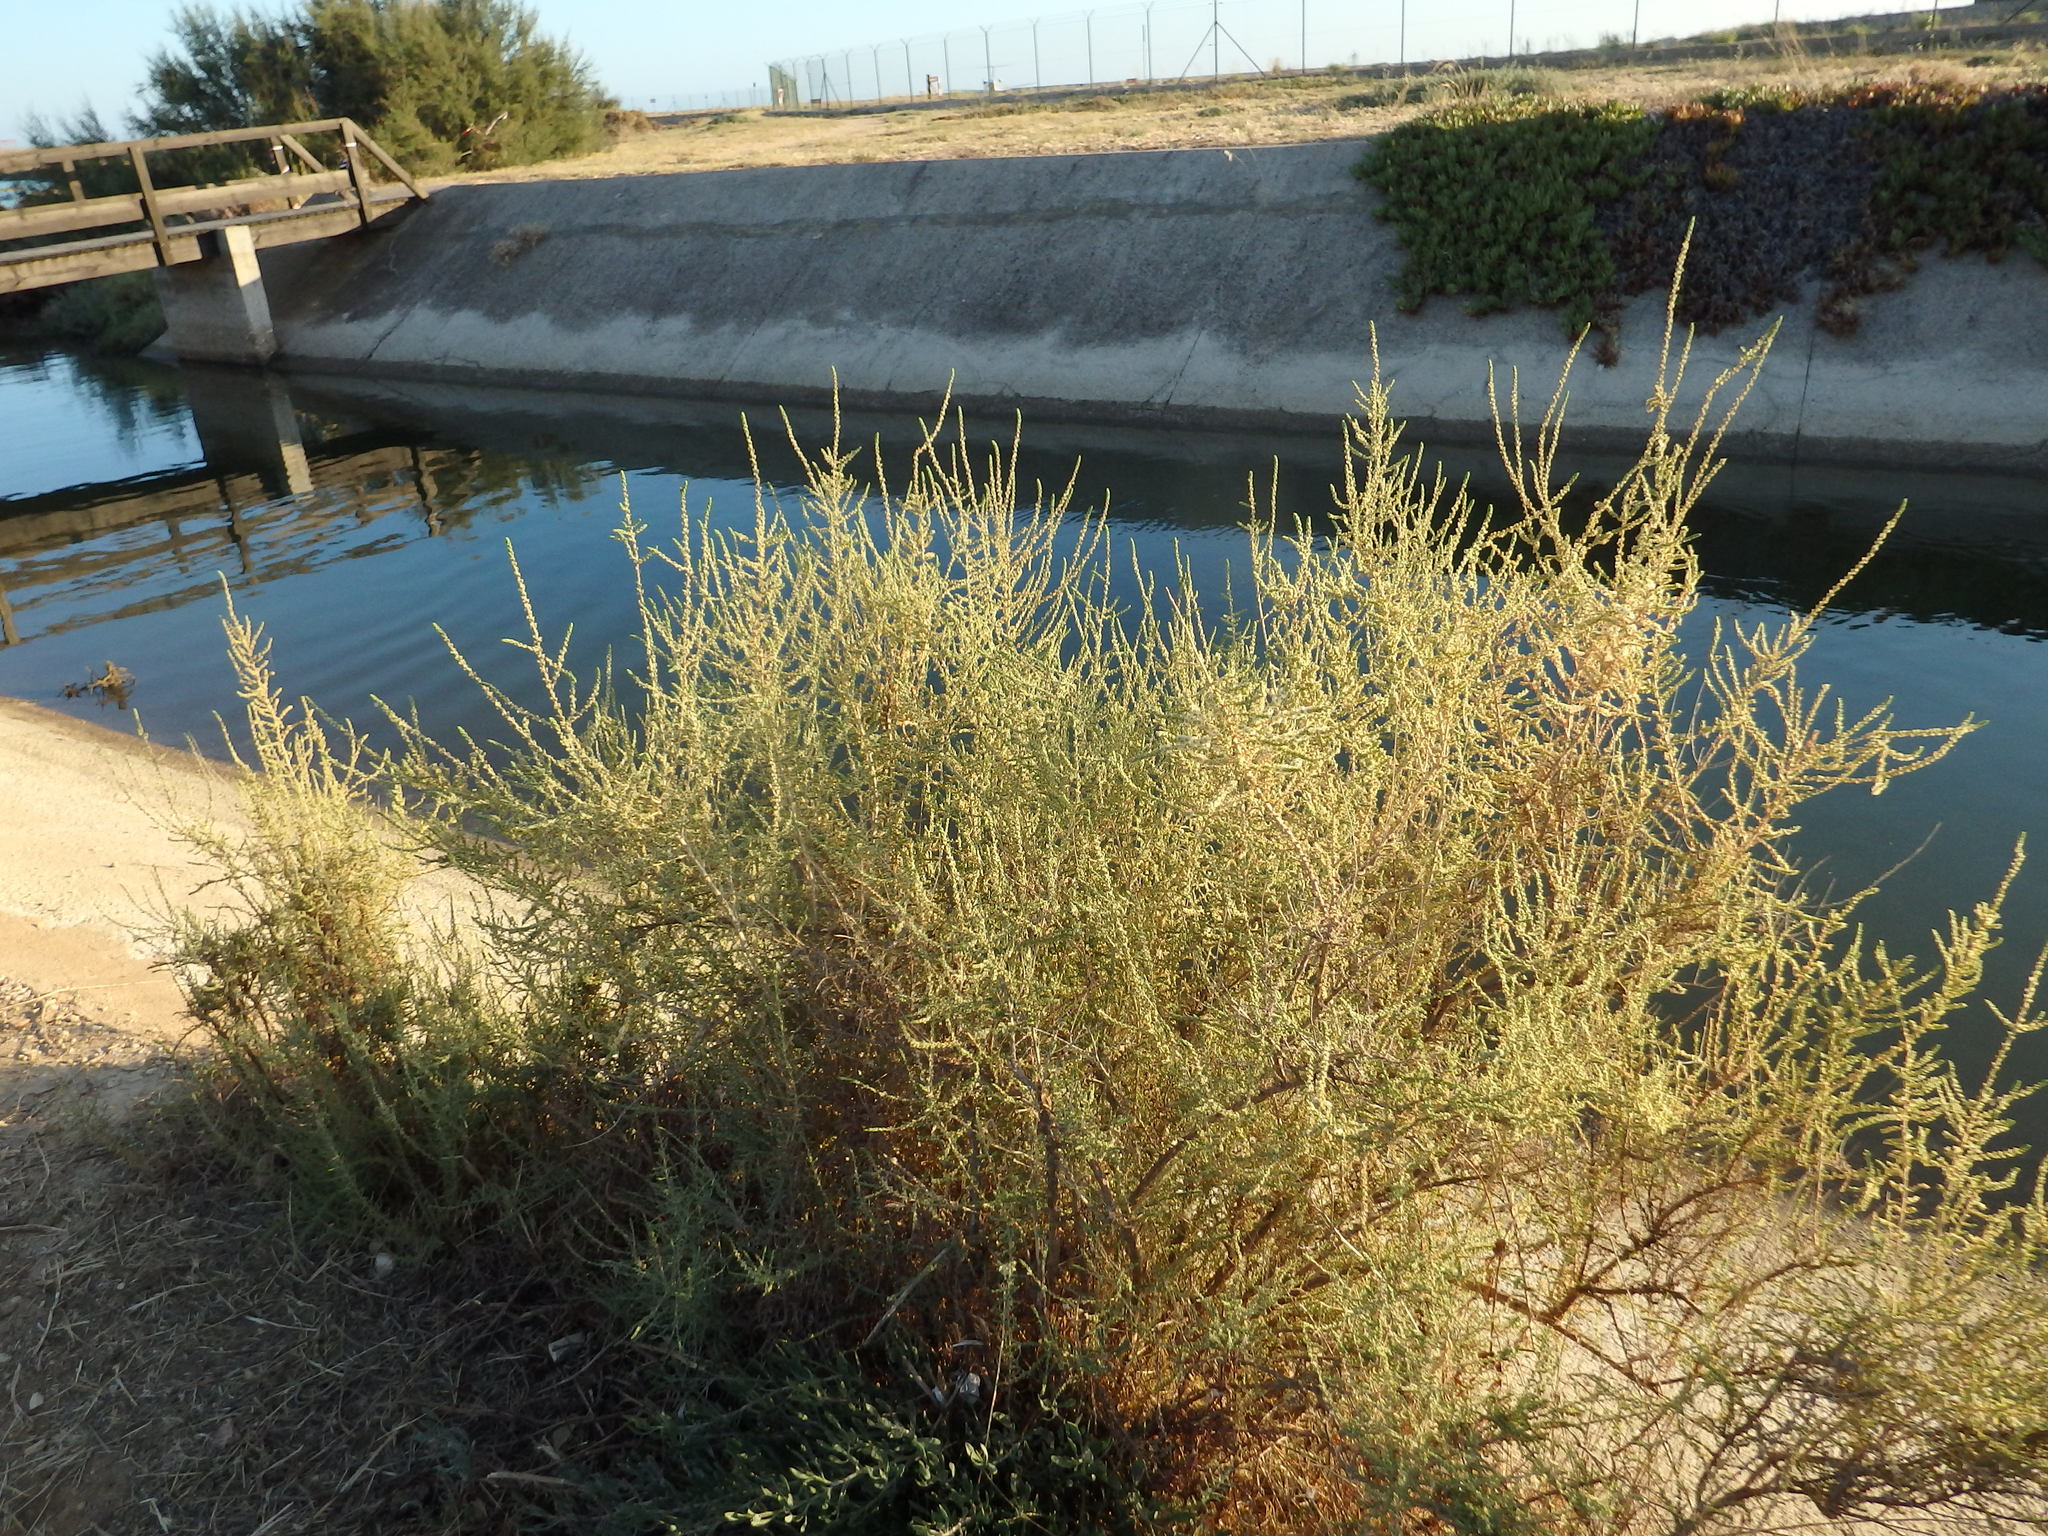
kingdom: Plantae
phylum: Tracheophyta
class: Magnoliopsida
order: Caryophyllales
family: Amaranthaceae
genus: Nitrosalsola
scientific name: Nitrosalsola vermiculata
